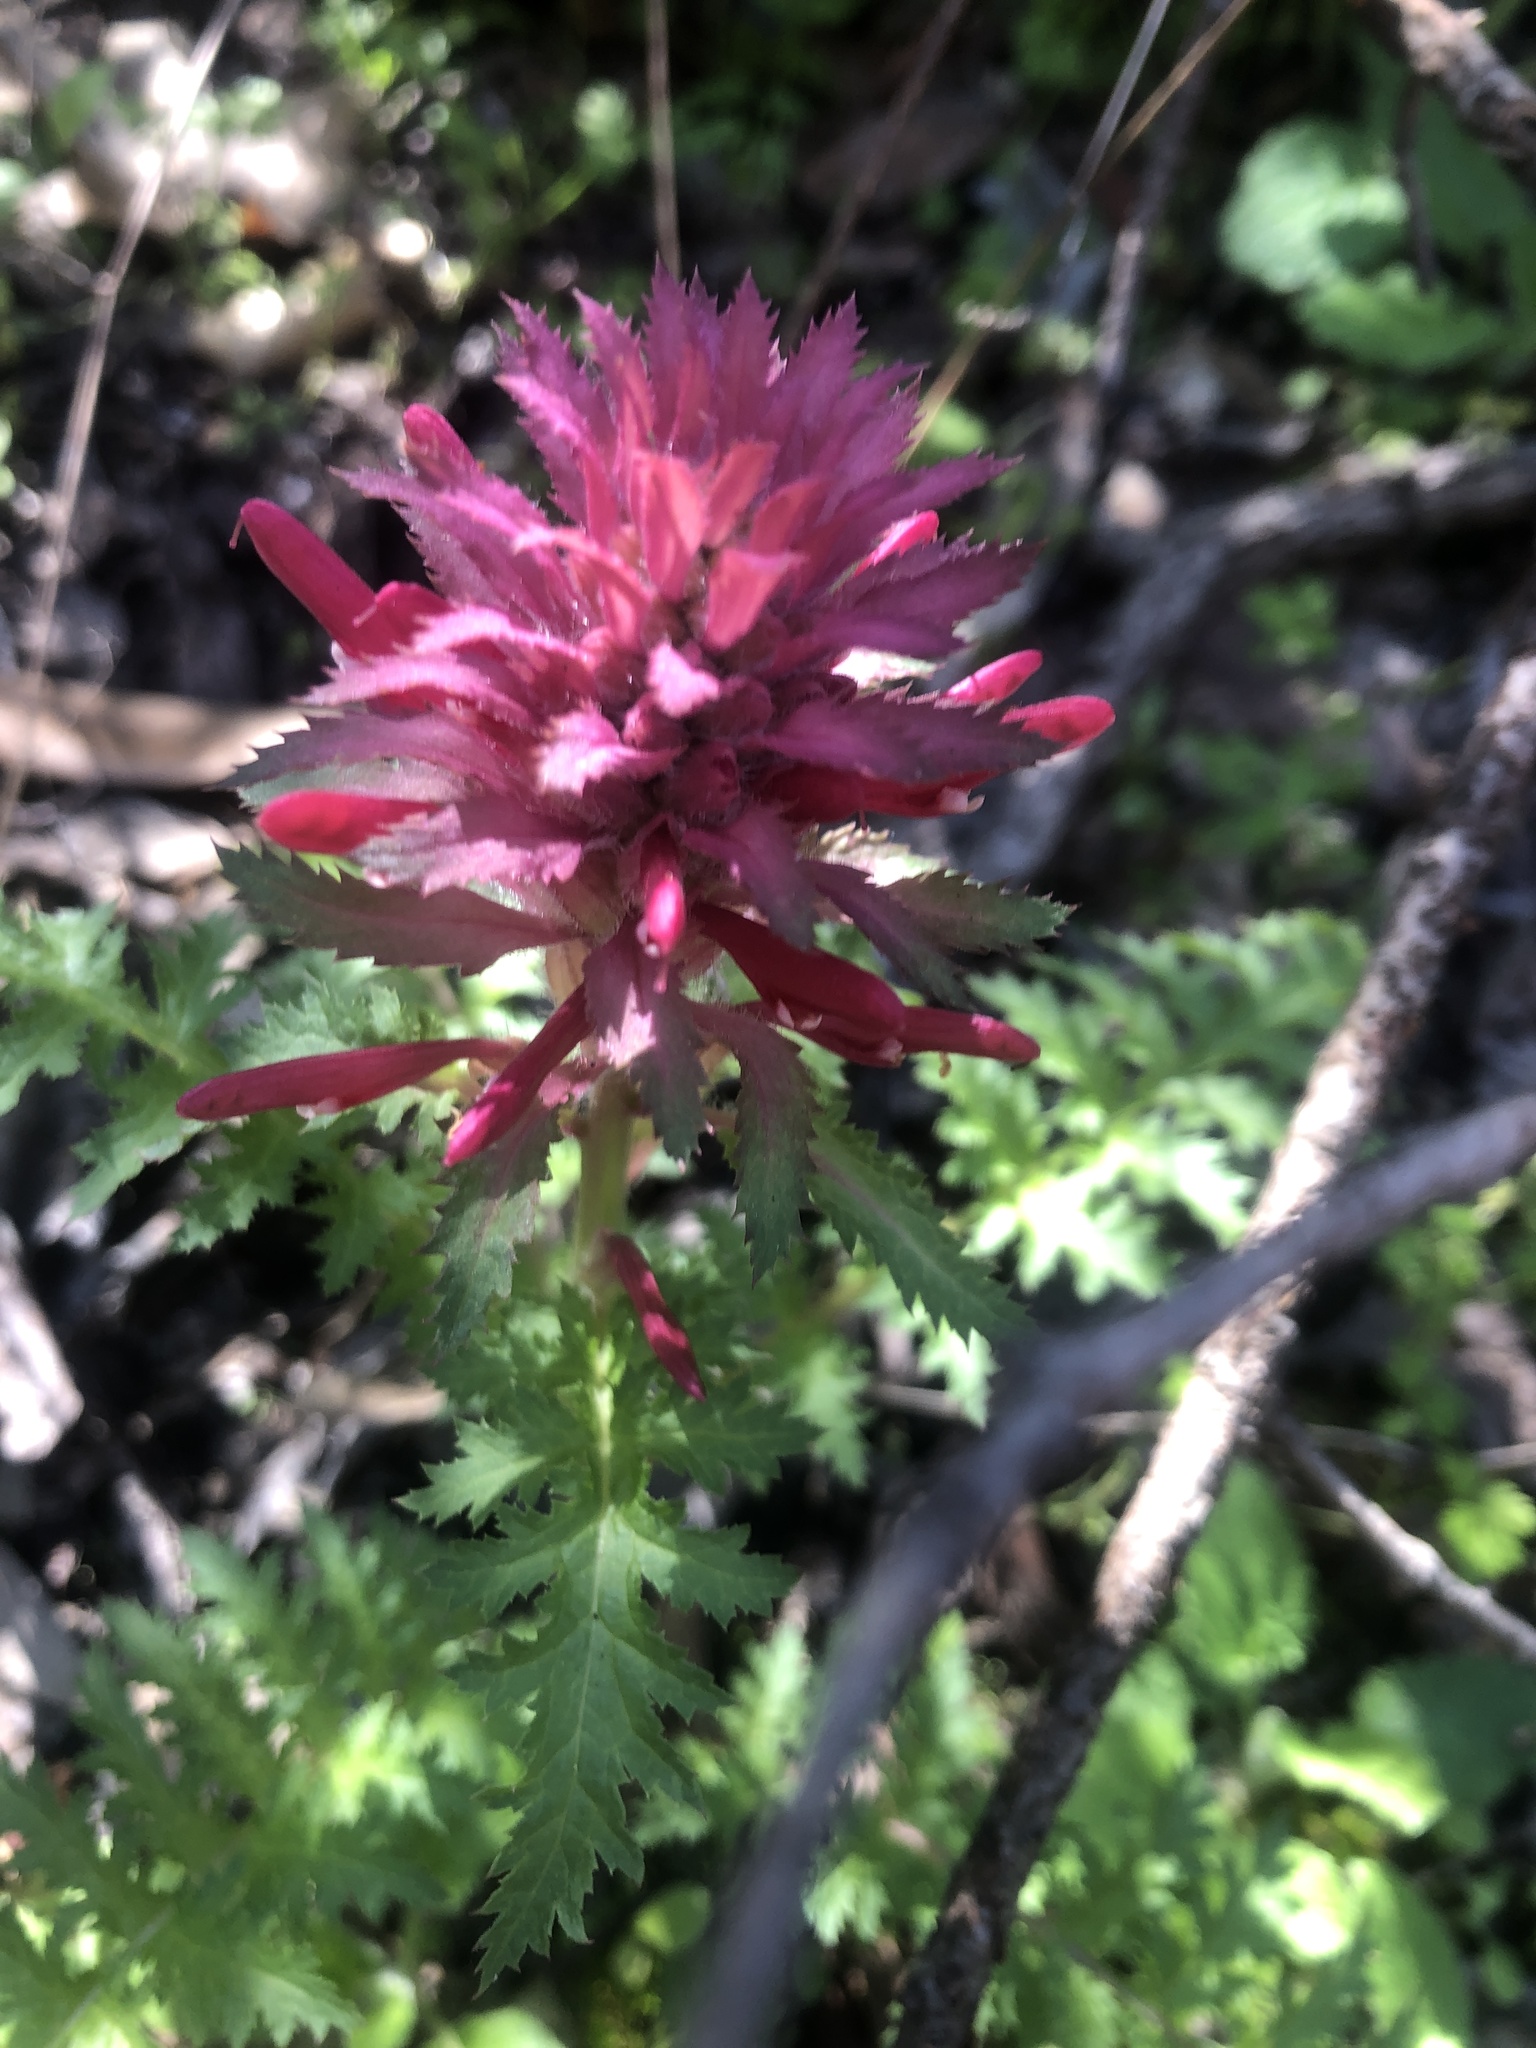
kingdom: Plantae
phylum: Tracheophyta
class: Magnoliopsida
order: Lamiales
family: Orobanchaceae
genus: Pedicularis
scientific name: Pedicularis densiflora
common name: Indian warrior
